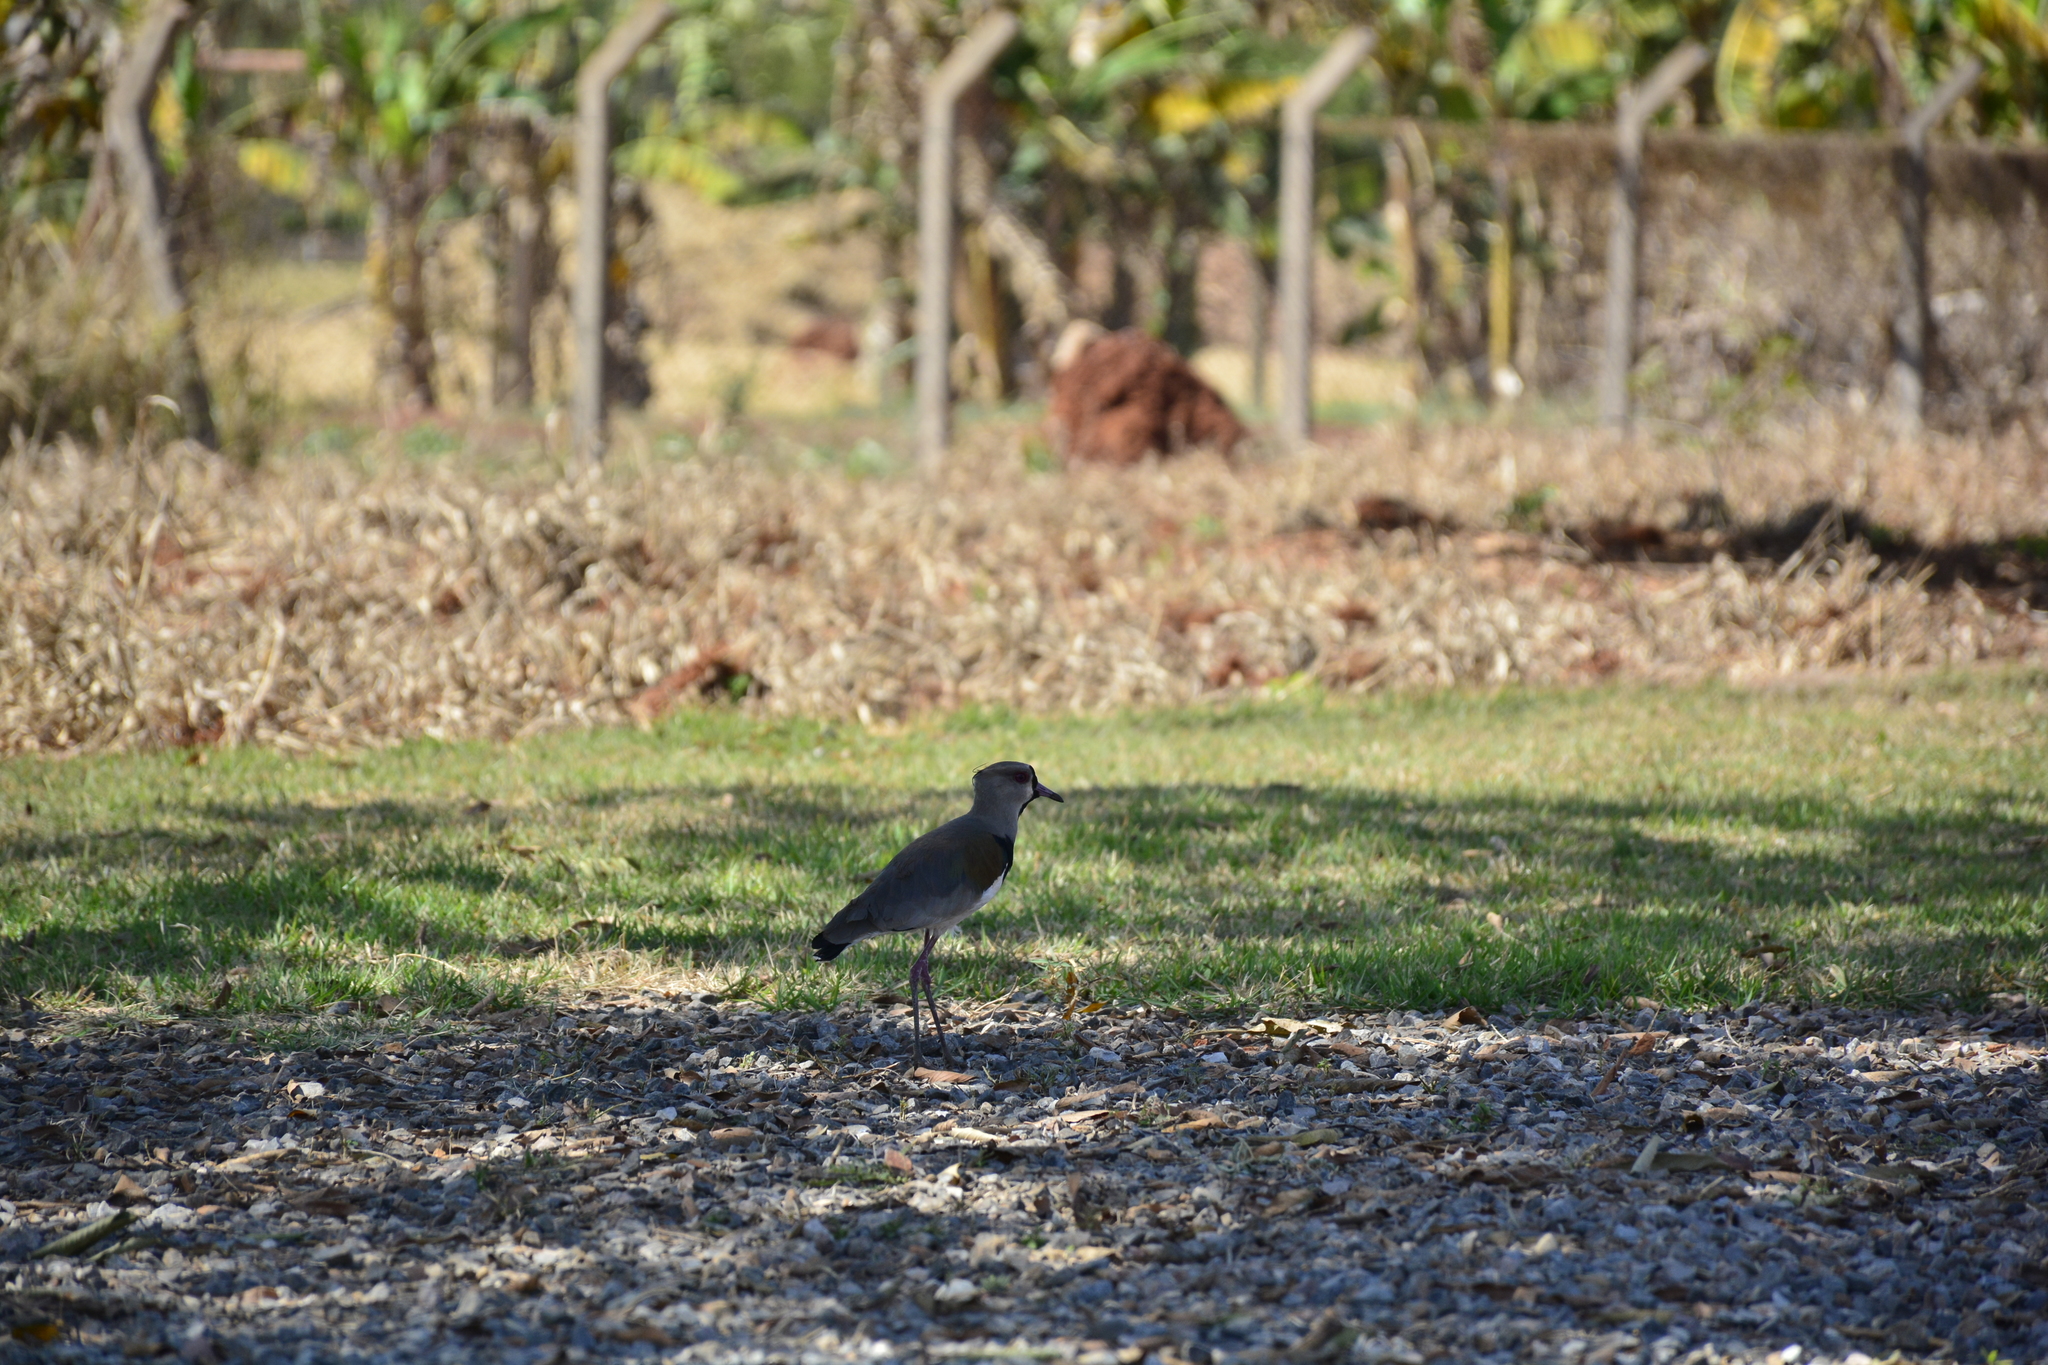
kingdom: Animalia
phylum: Chordata
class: Aves
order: Charadriiformes
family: Charadriidae
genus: Vanellus
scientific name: Vanellus chilensis
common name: Southern lapwing
